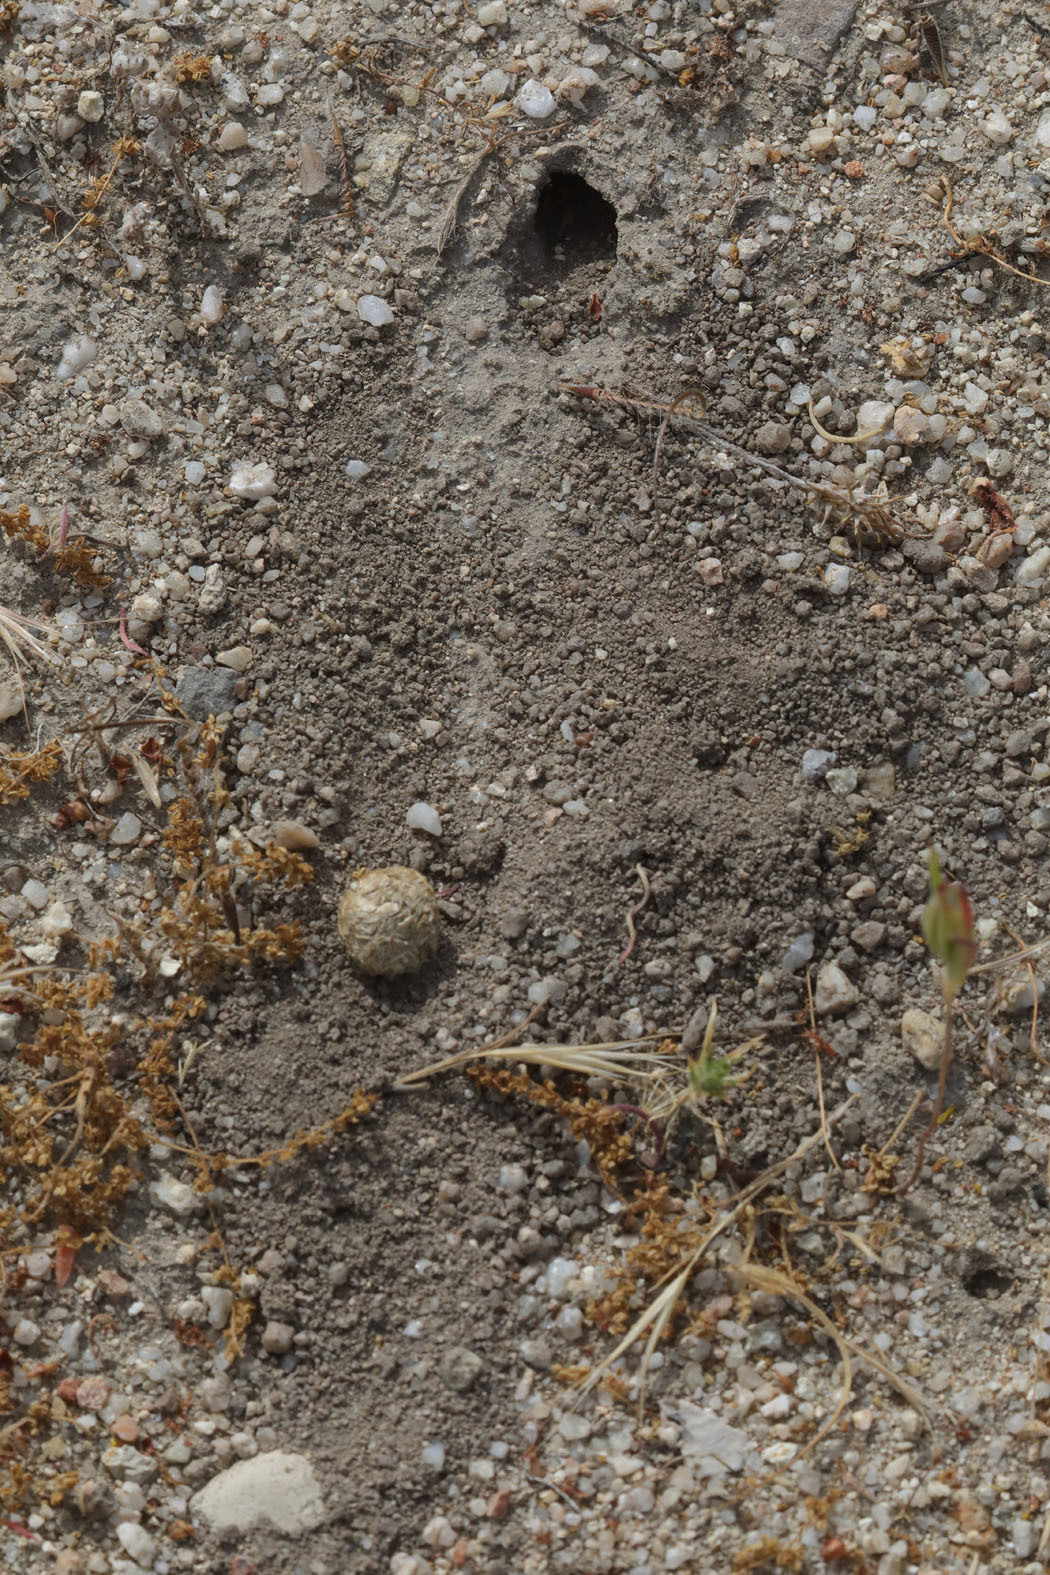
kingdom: Animalia
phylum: Arthropoda
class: Insecta
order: Hymenoptera
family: Megachilidae
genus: Trachusa
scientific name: Trachusa perdita
